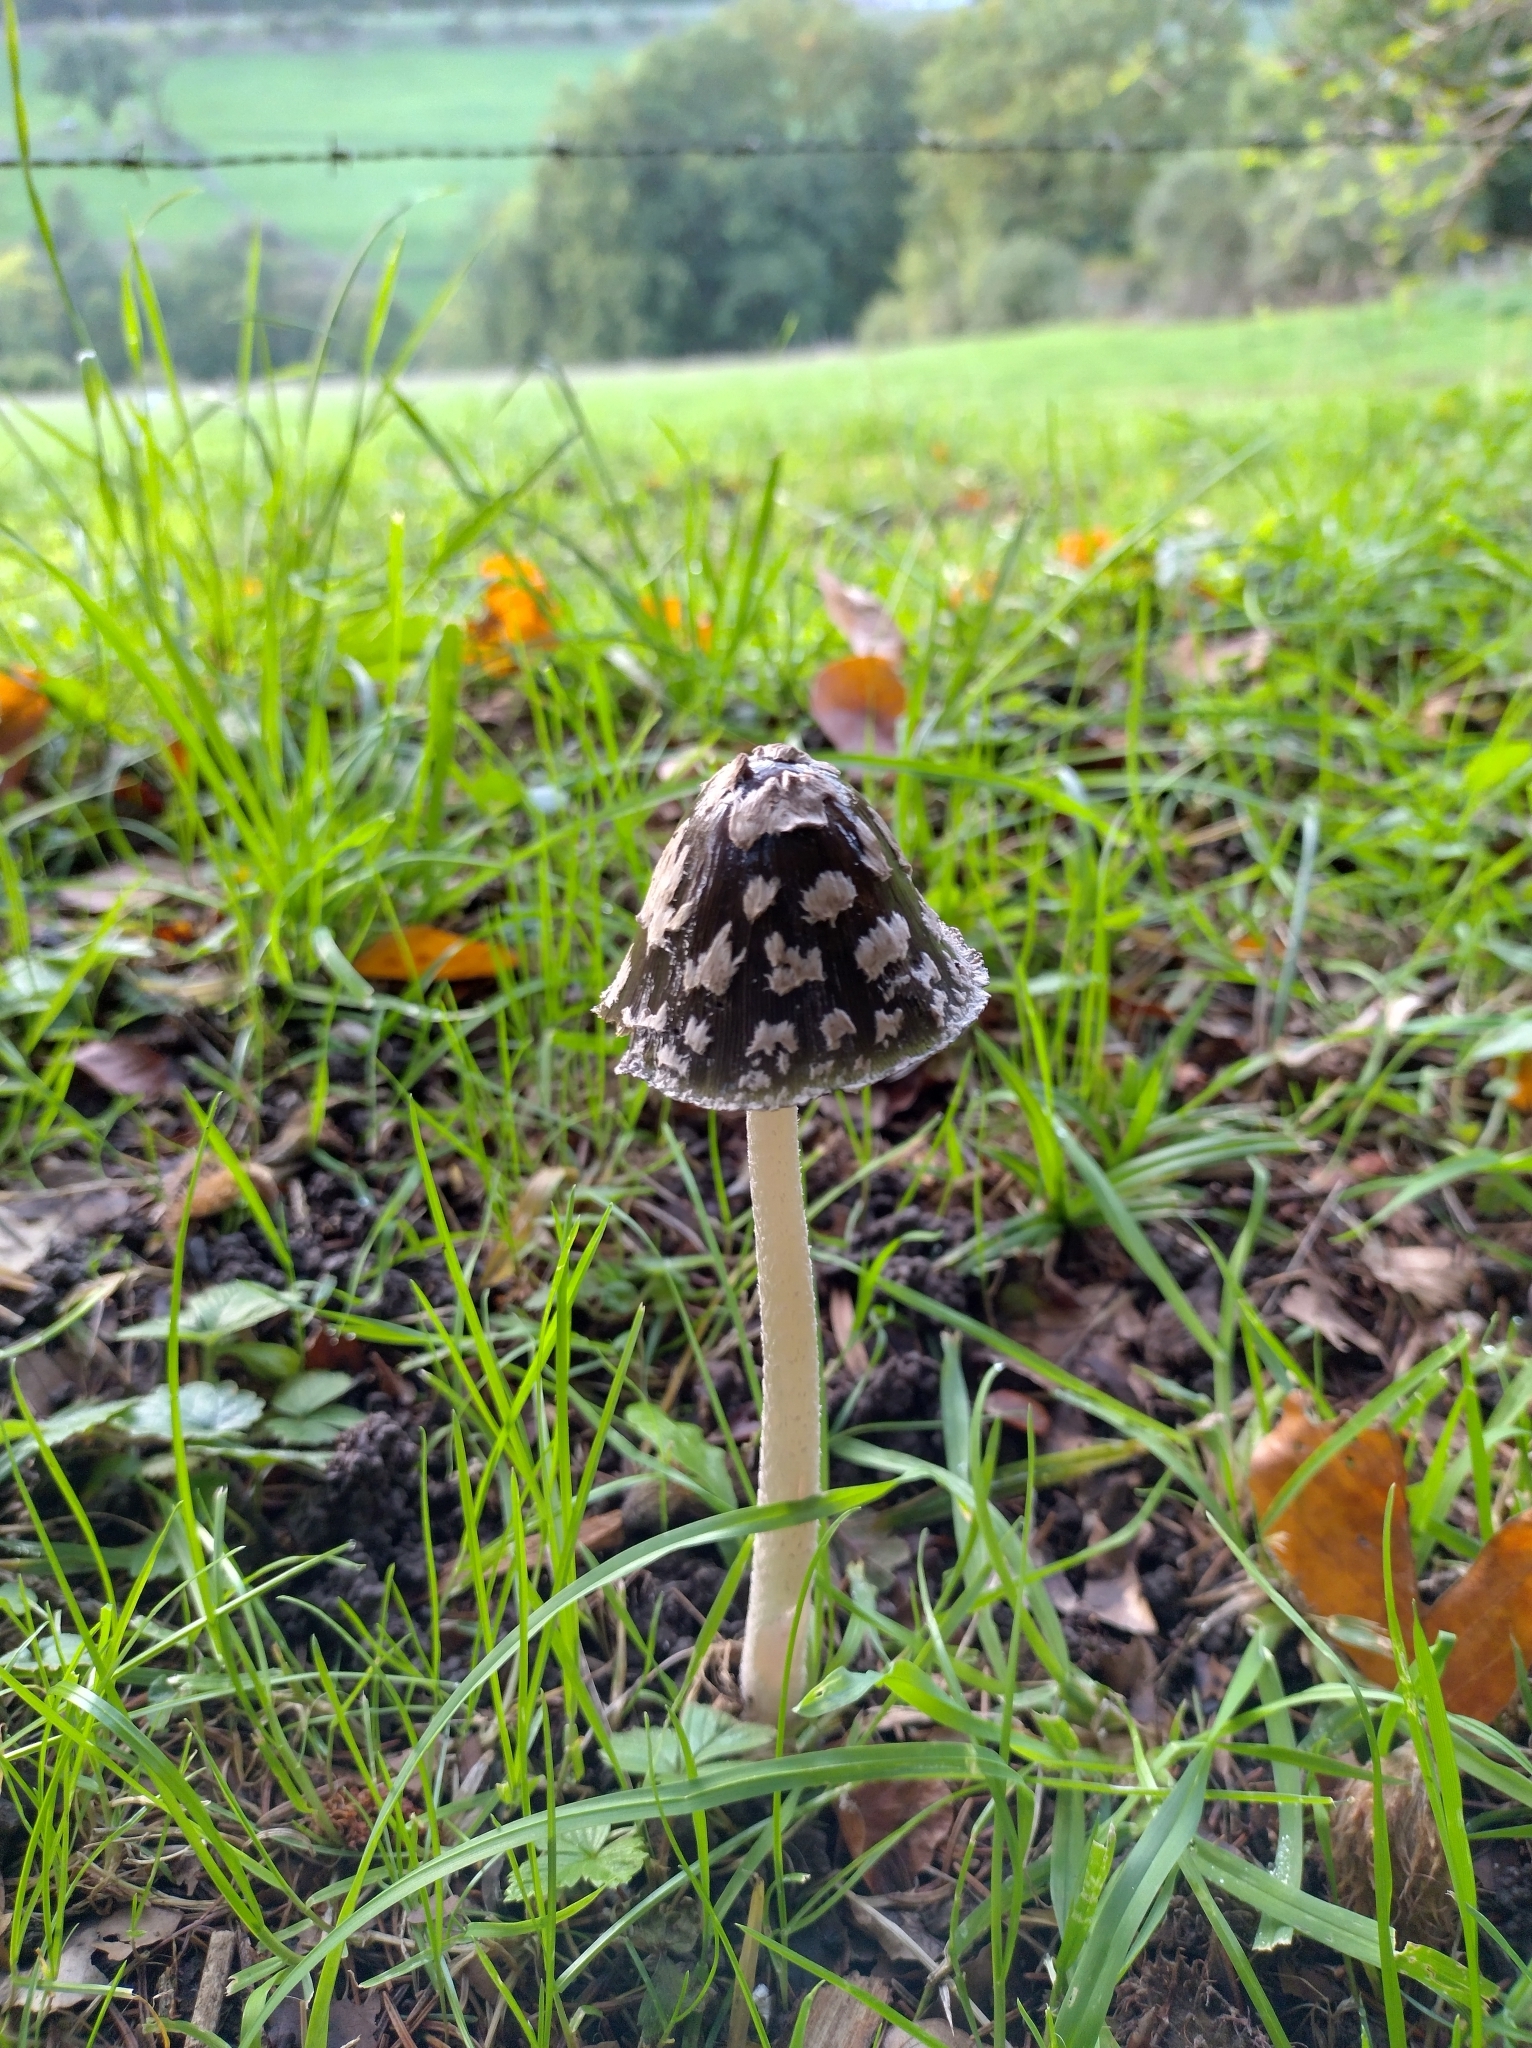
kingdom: Fungi
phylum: Basidiomycota
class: Agaricomycetes
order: Agaricales
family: Psathyrellaceae
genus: Coprinopsis
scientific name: Coprinopsis picacea
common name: Magpie inkcap
